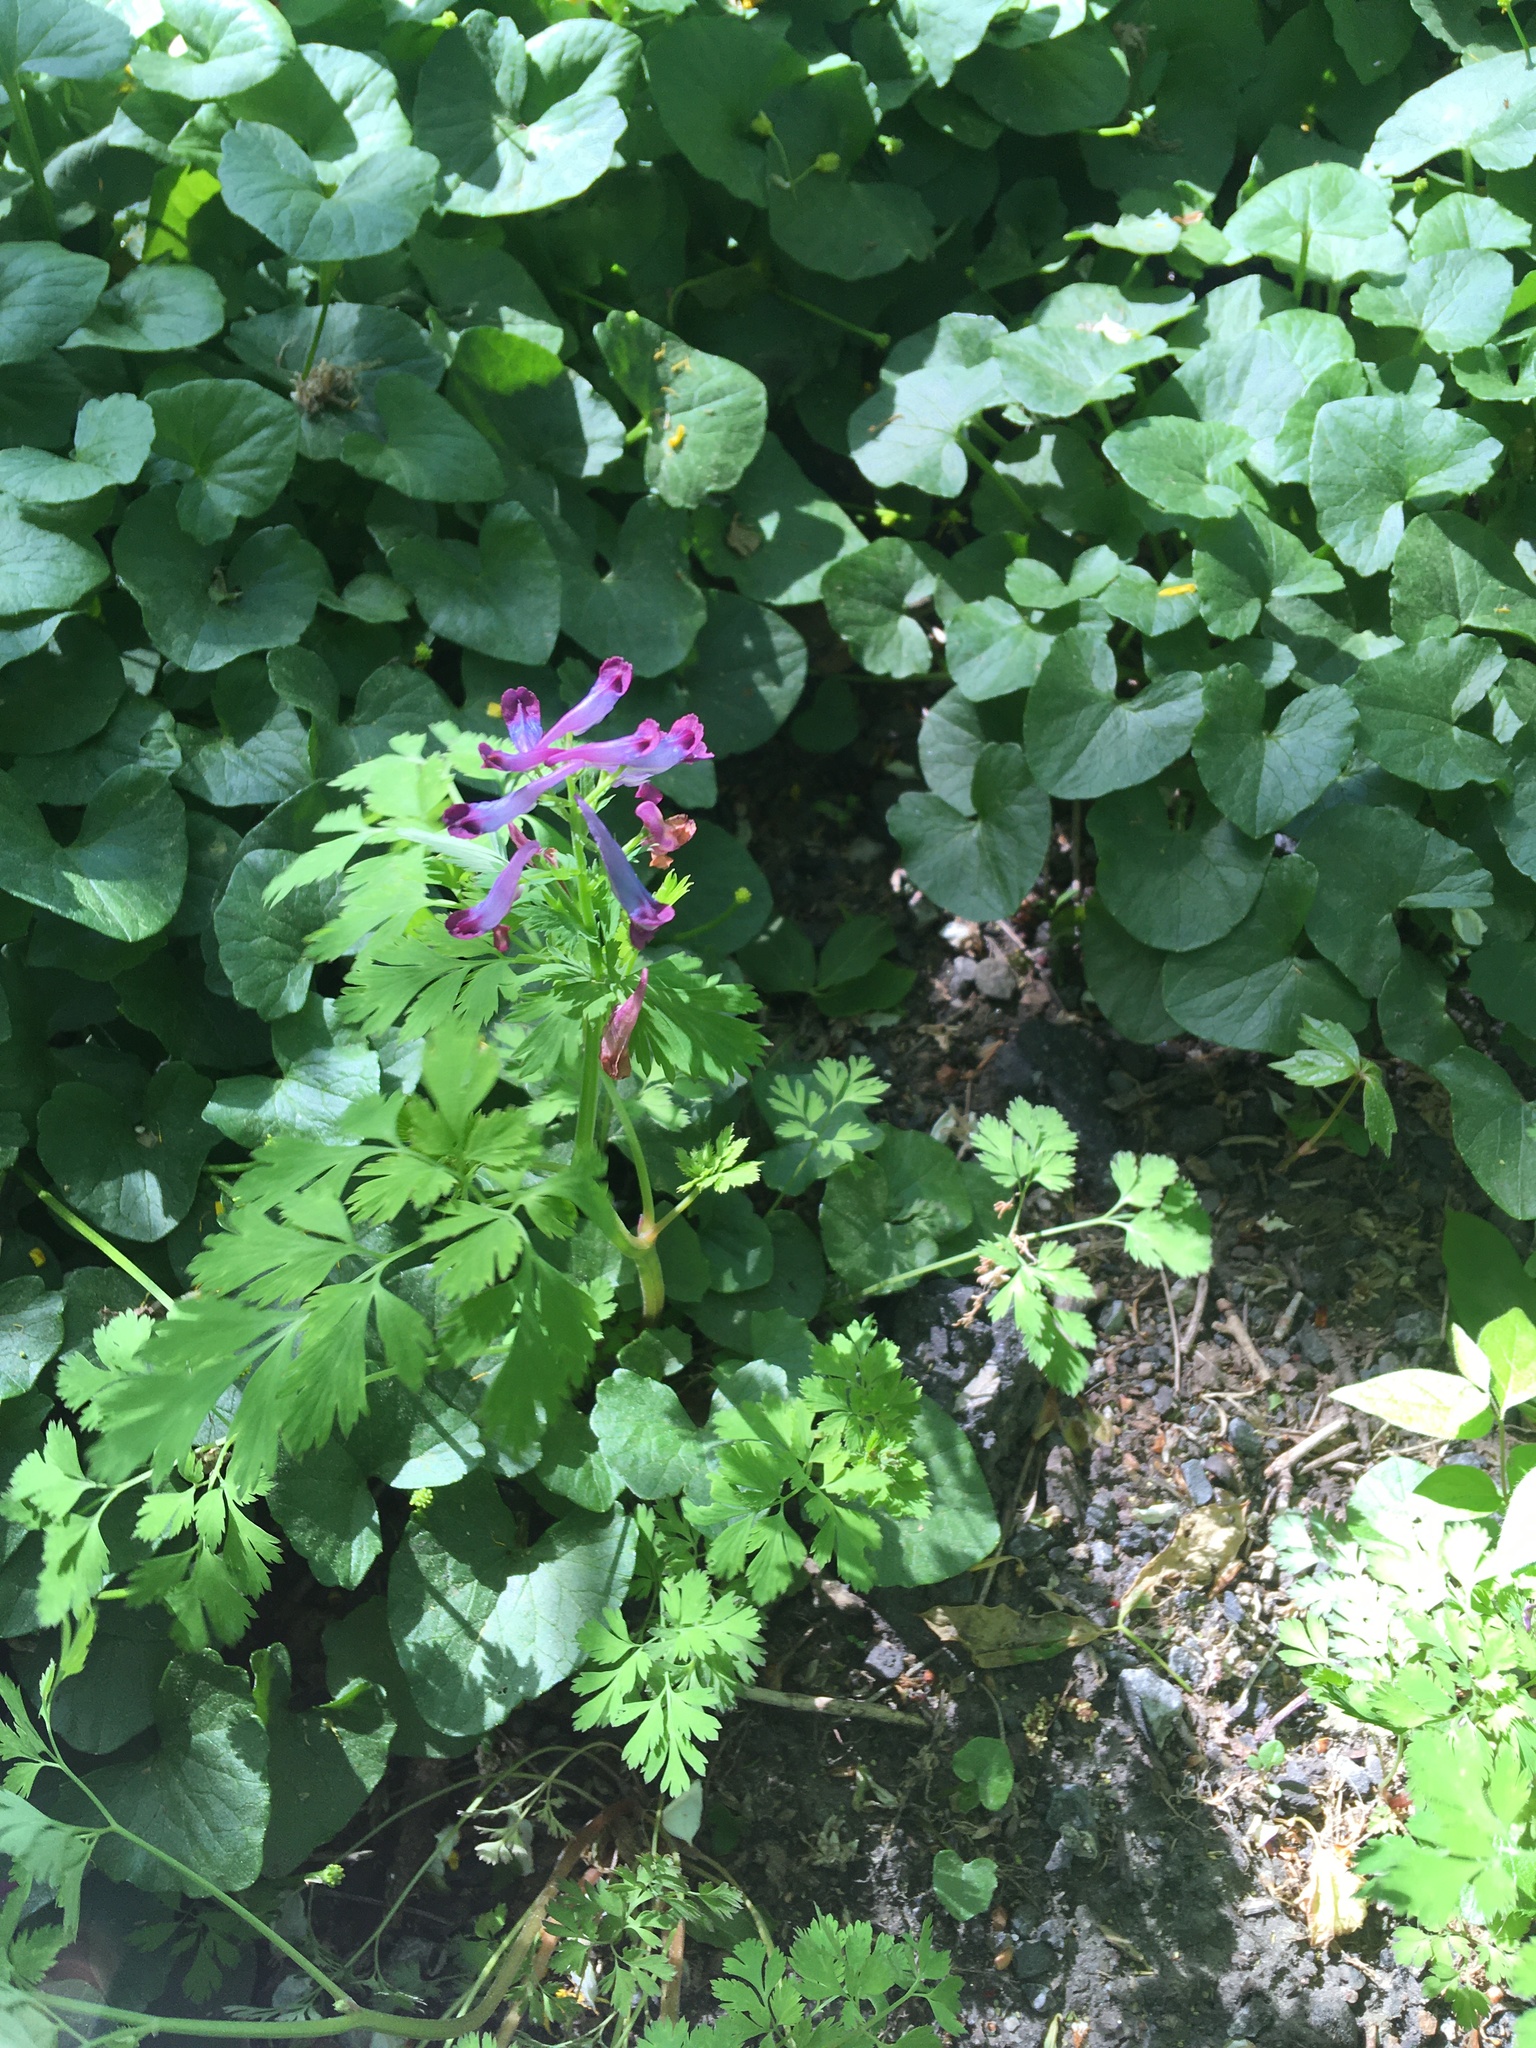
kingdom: Plantae
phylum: Tracheophyta
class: Magnoliopsida
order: Ranunculales
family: Papaveraceae
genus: Corydalis
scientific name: Corydalis incisa
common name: Incised fumewort
